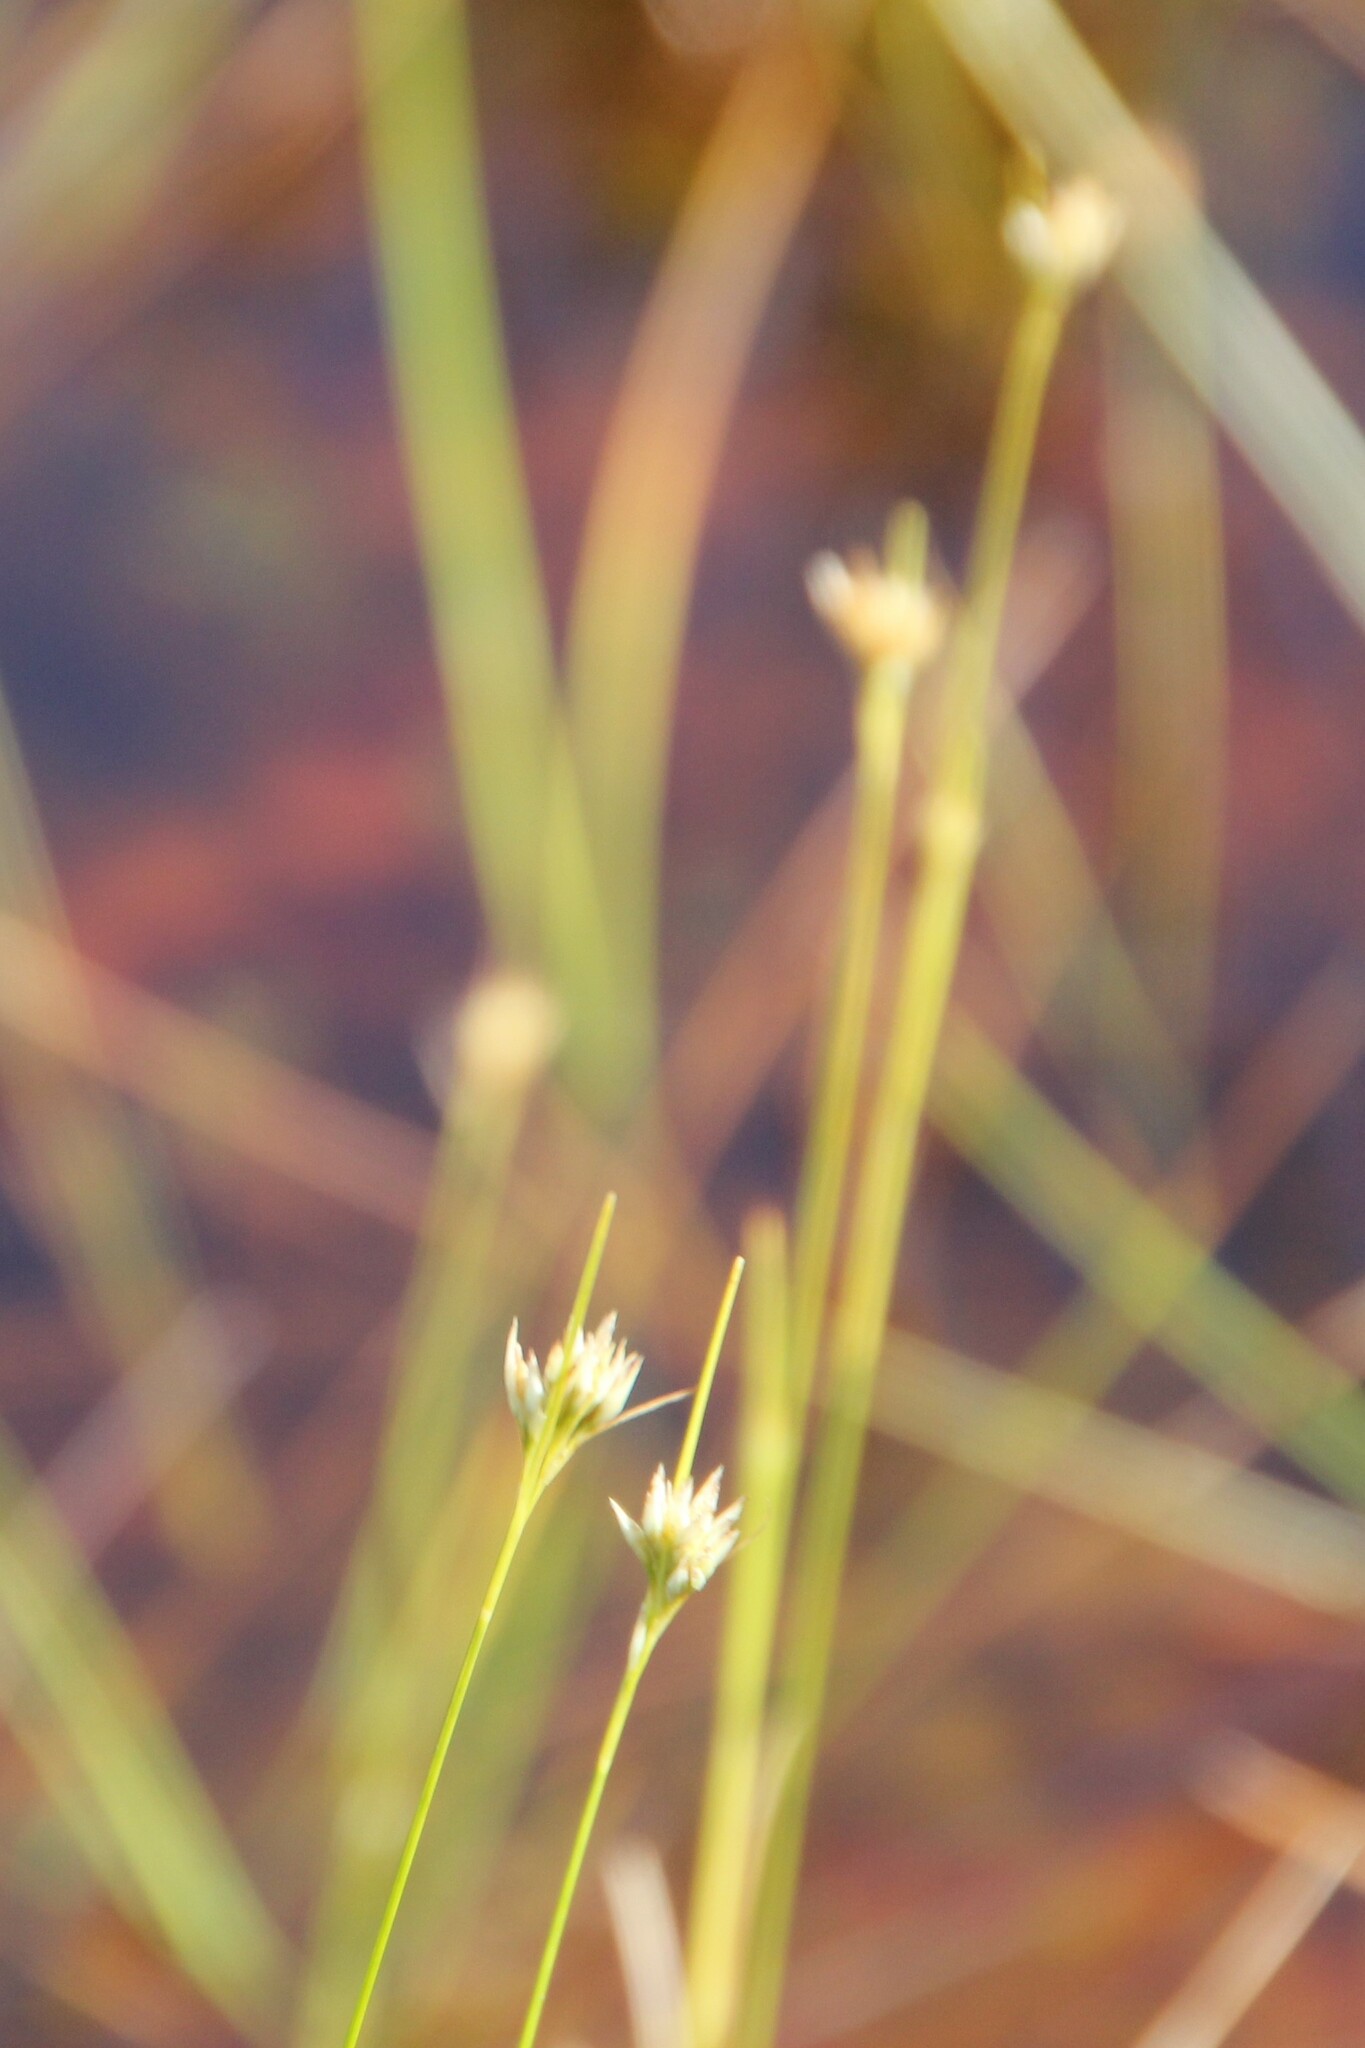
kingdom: Plantae
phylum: Tracheophyta
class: Liliopsida
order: Poales
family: Cyperaceae
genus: Rhynchospora
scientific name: Rhynchospora alba
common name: White beak-sedge
